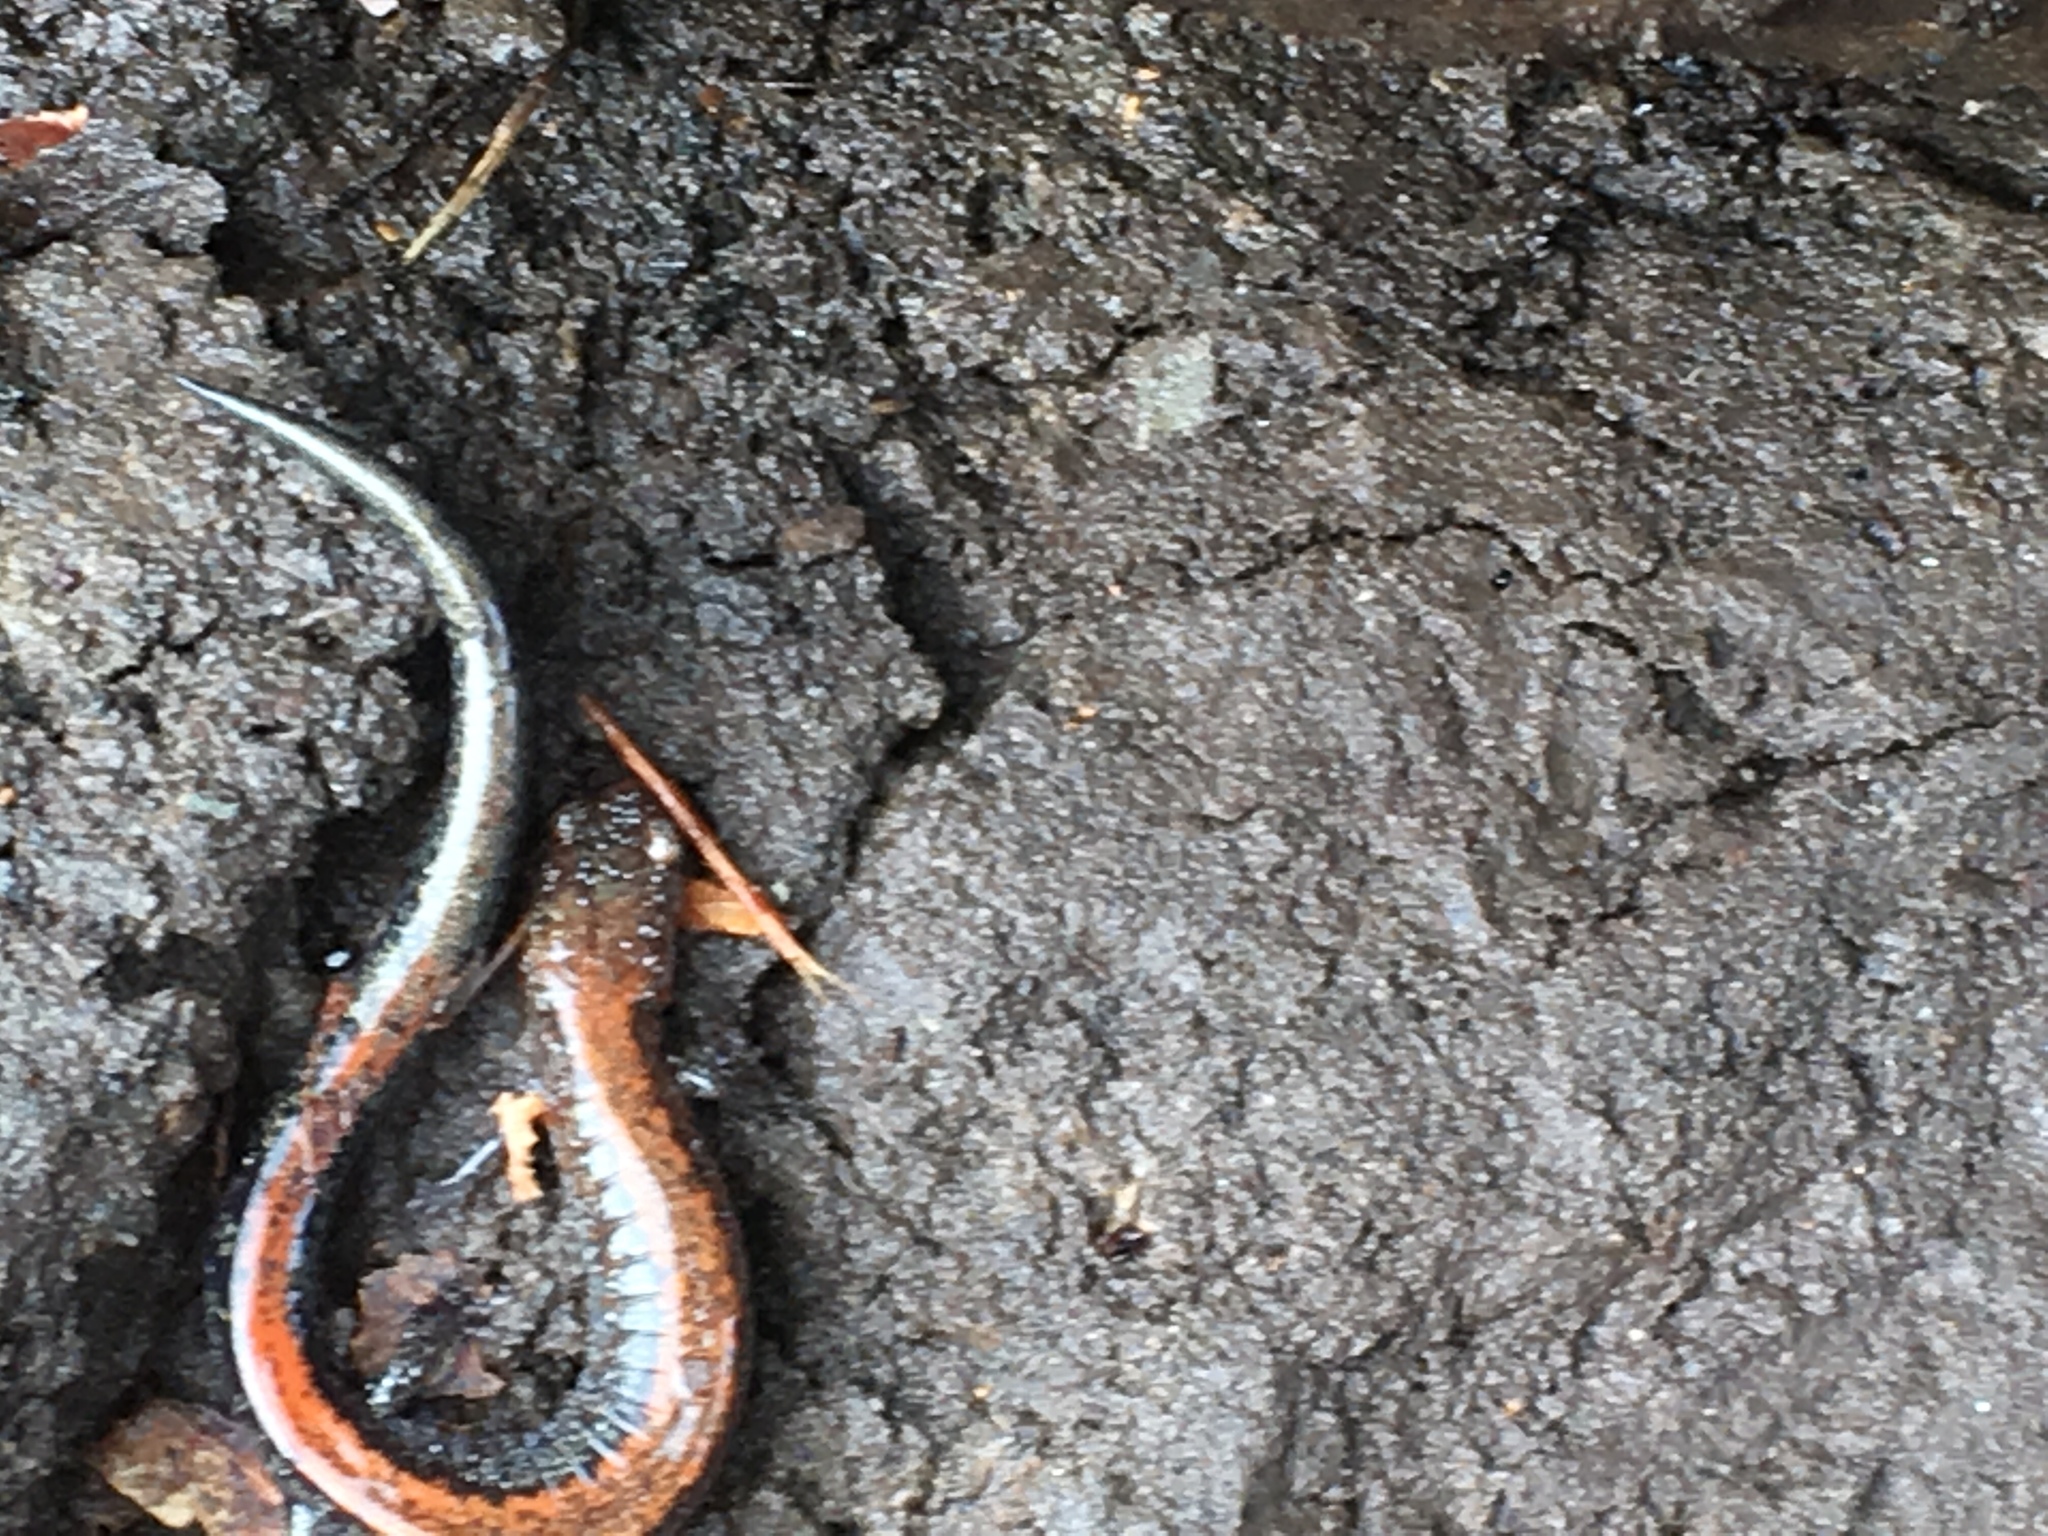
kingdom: Animalia
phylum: Chordata
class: Amphibia
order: Caudata
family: Plethodontidae
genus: Plethodon
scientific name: Plethodon cinereus
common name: Redback salamander
